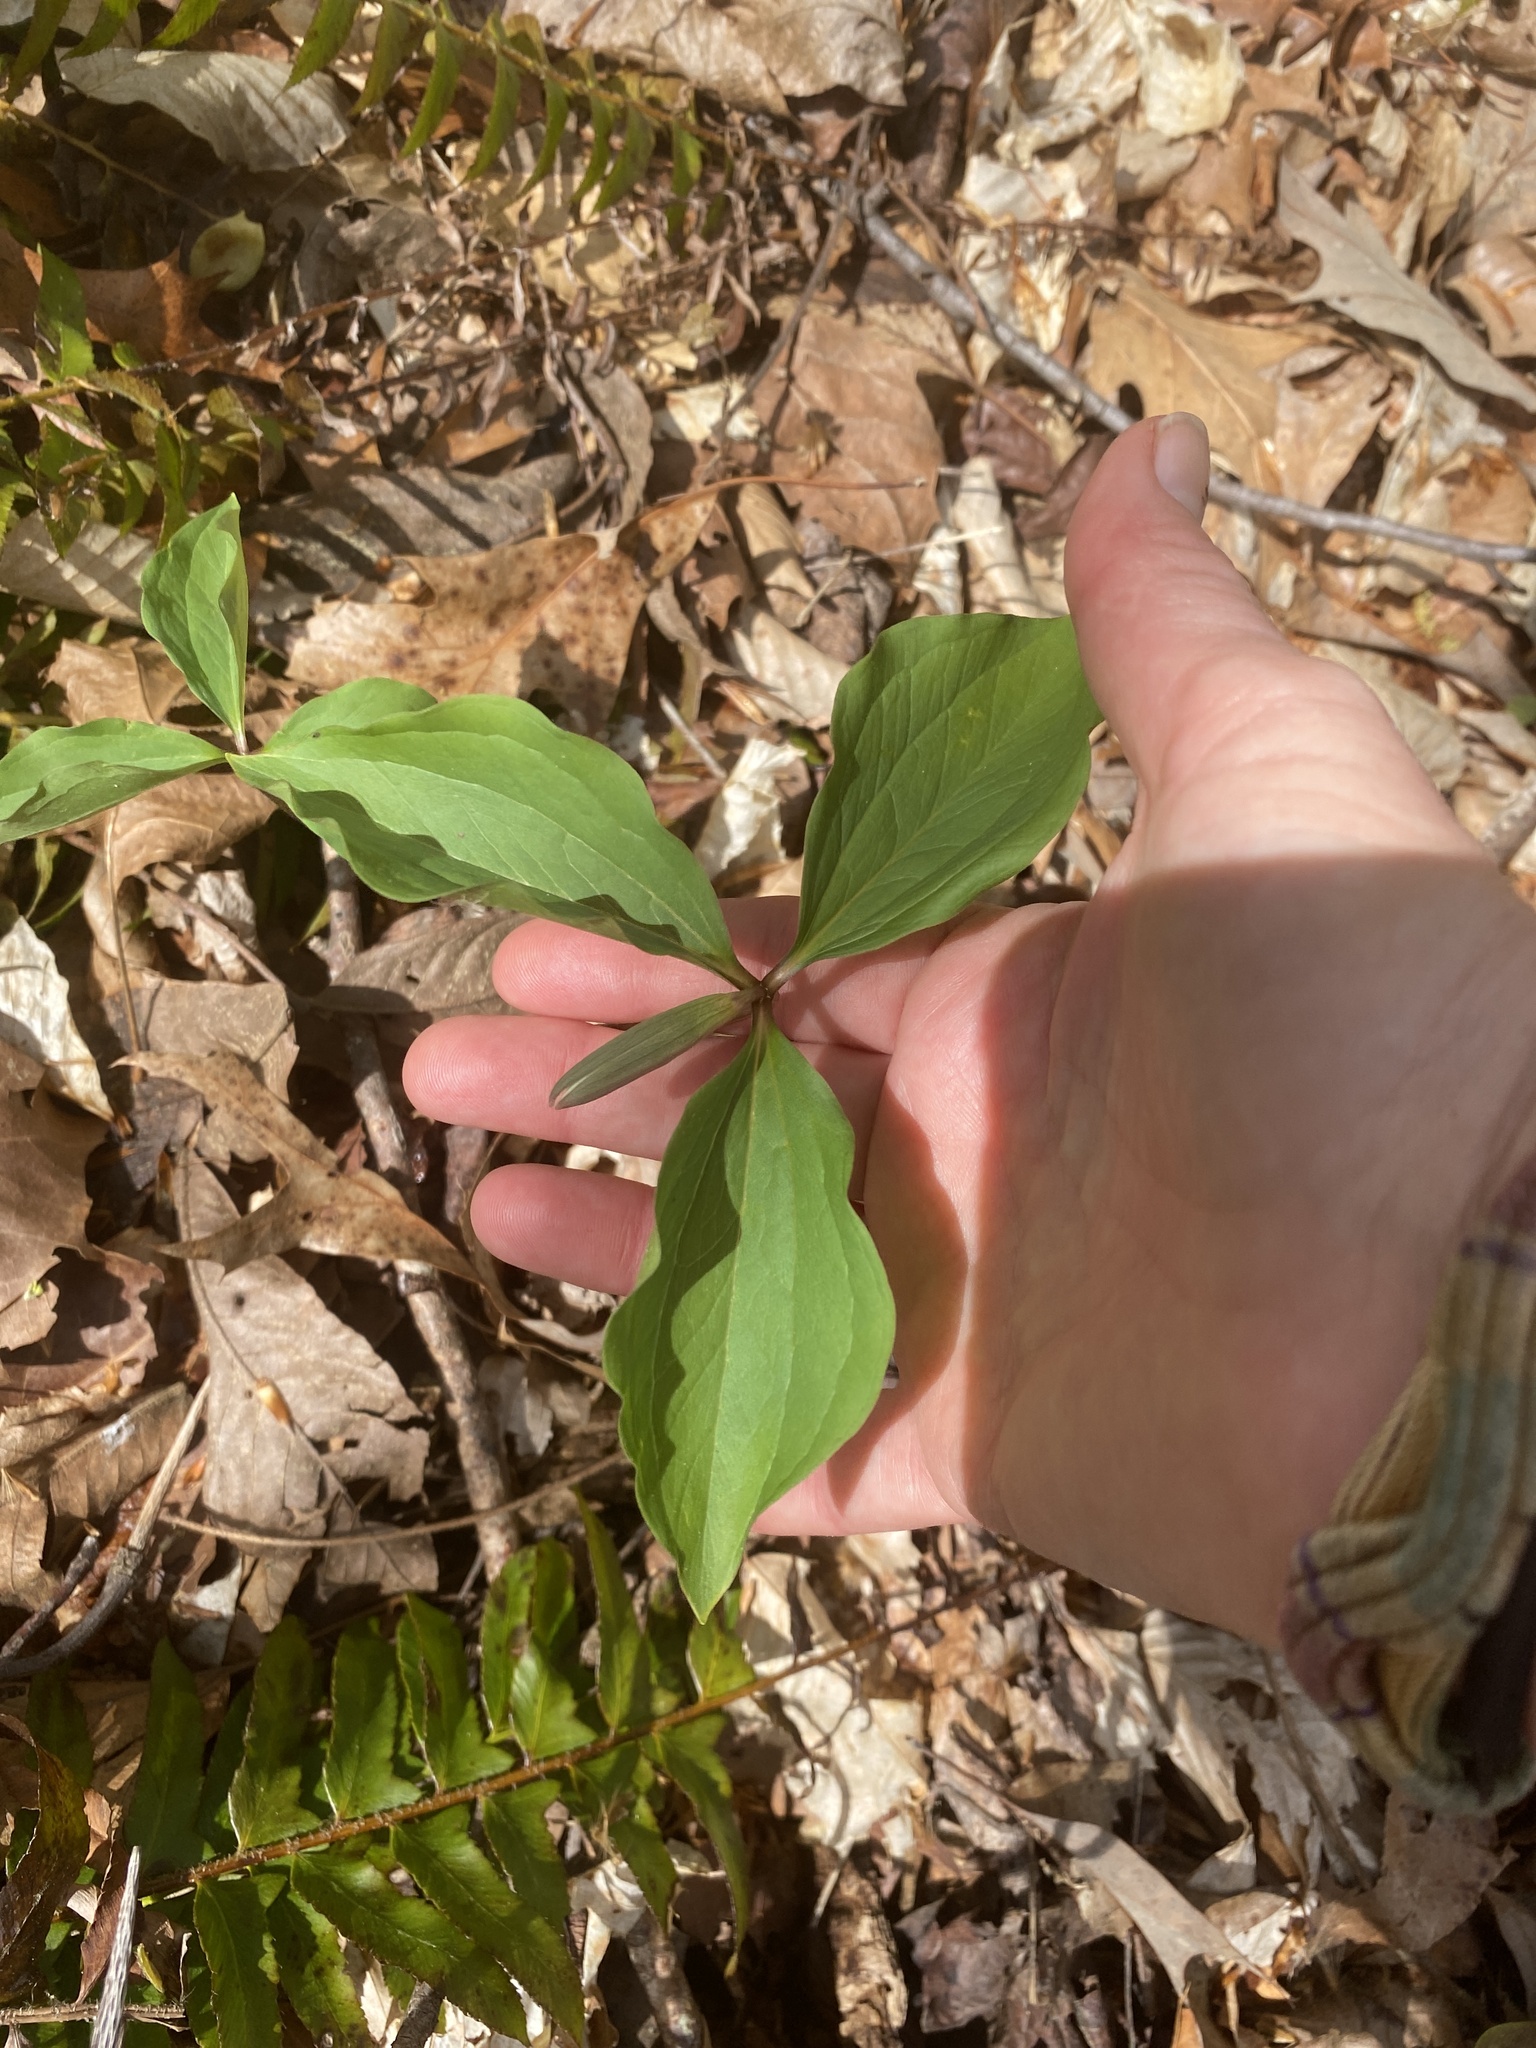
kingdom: Plantae
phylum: Tracheophyta
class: Liliopsida
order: Liliales
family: Melanthiaceae
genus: Trillium
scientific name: Trillium catesbaei
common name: Bashful trillium
